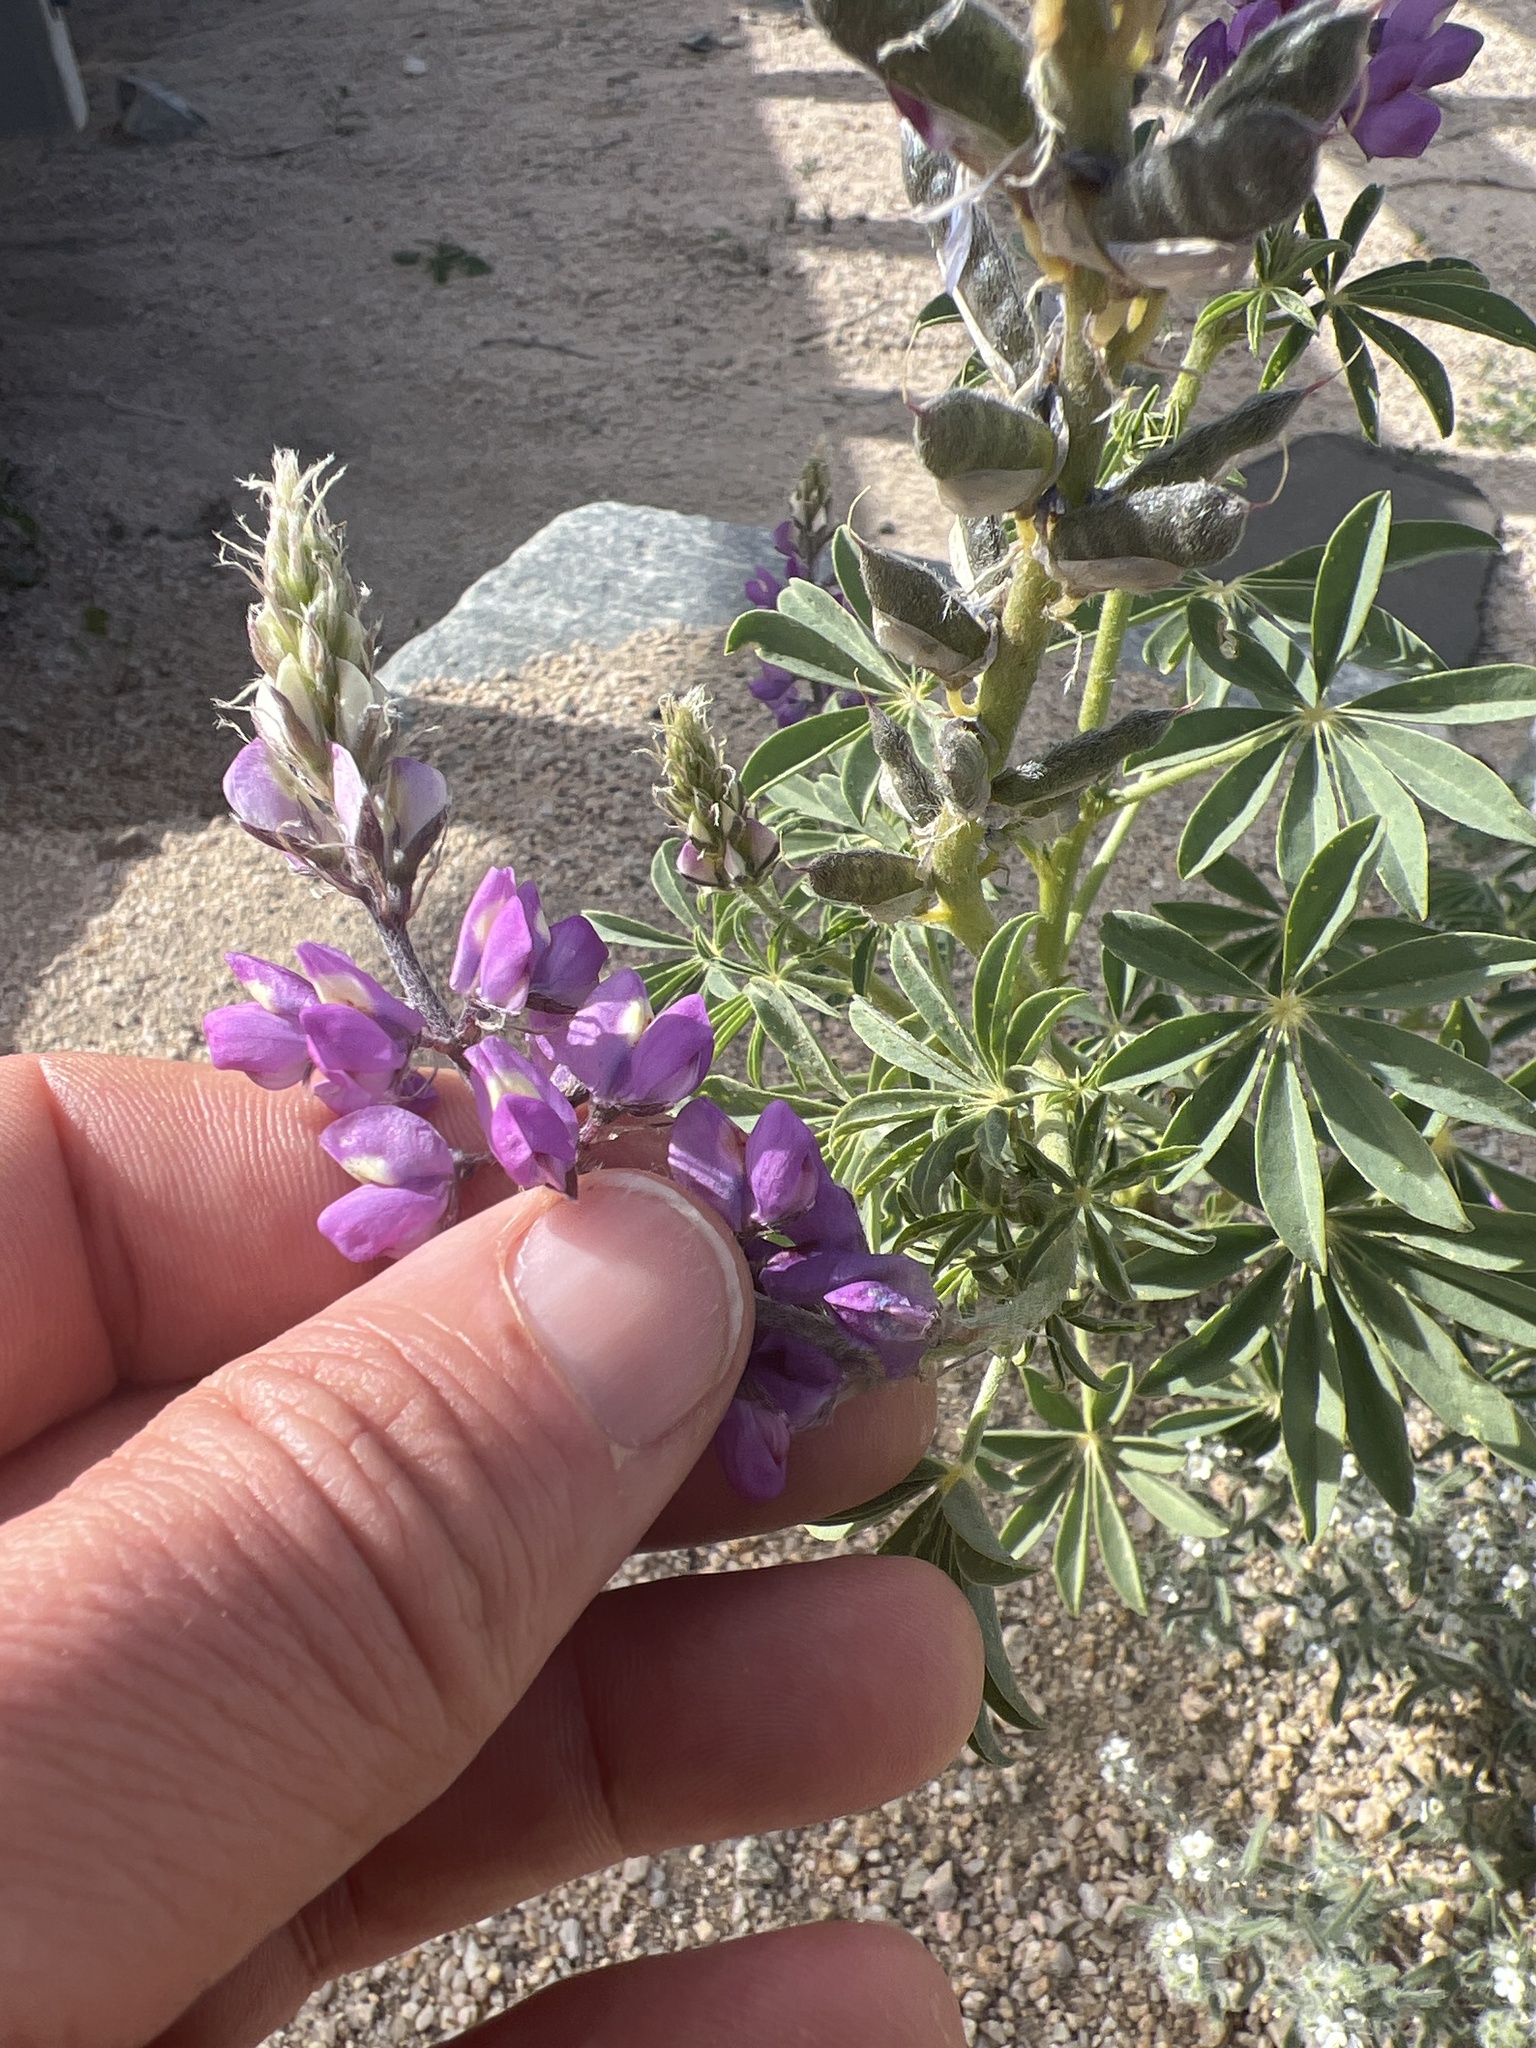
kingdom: Plantae
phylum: Tracheophyta
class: Magnoliopsida
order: Fabales
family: Fabaceae
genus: Lupinus
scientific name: Lupinus arizonicus
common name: Arizona lupine
